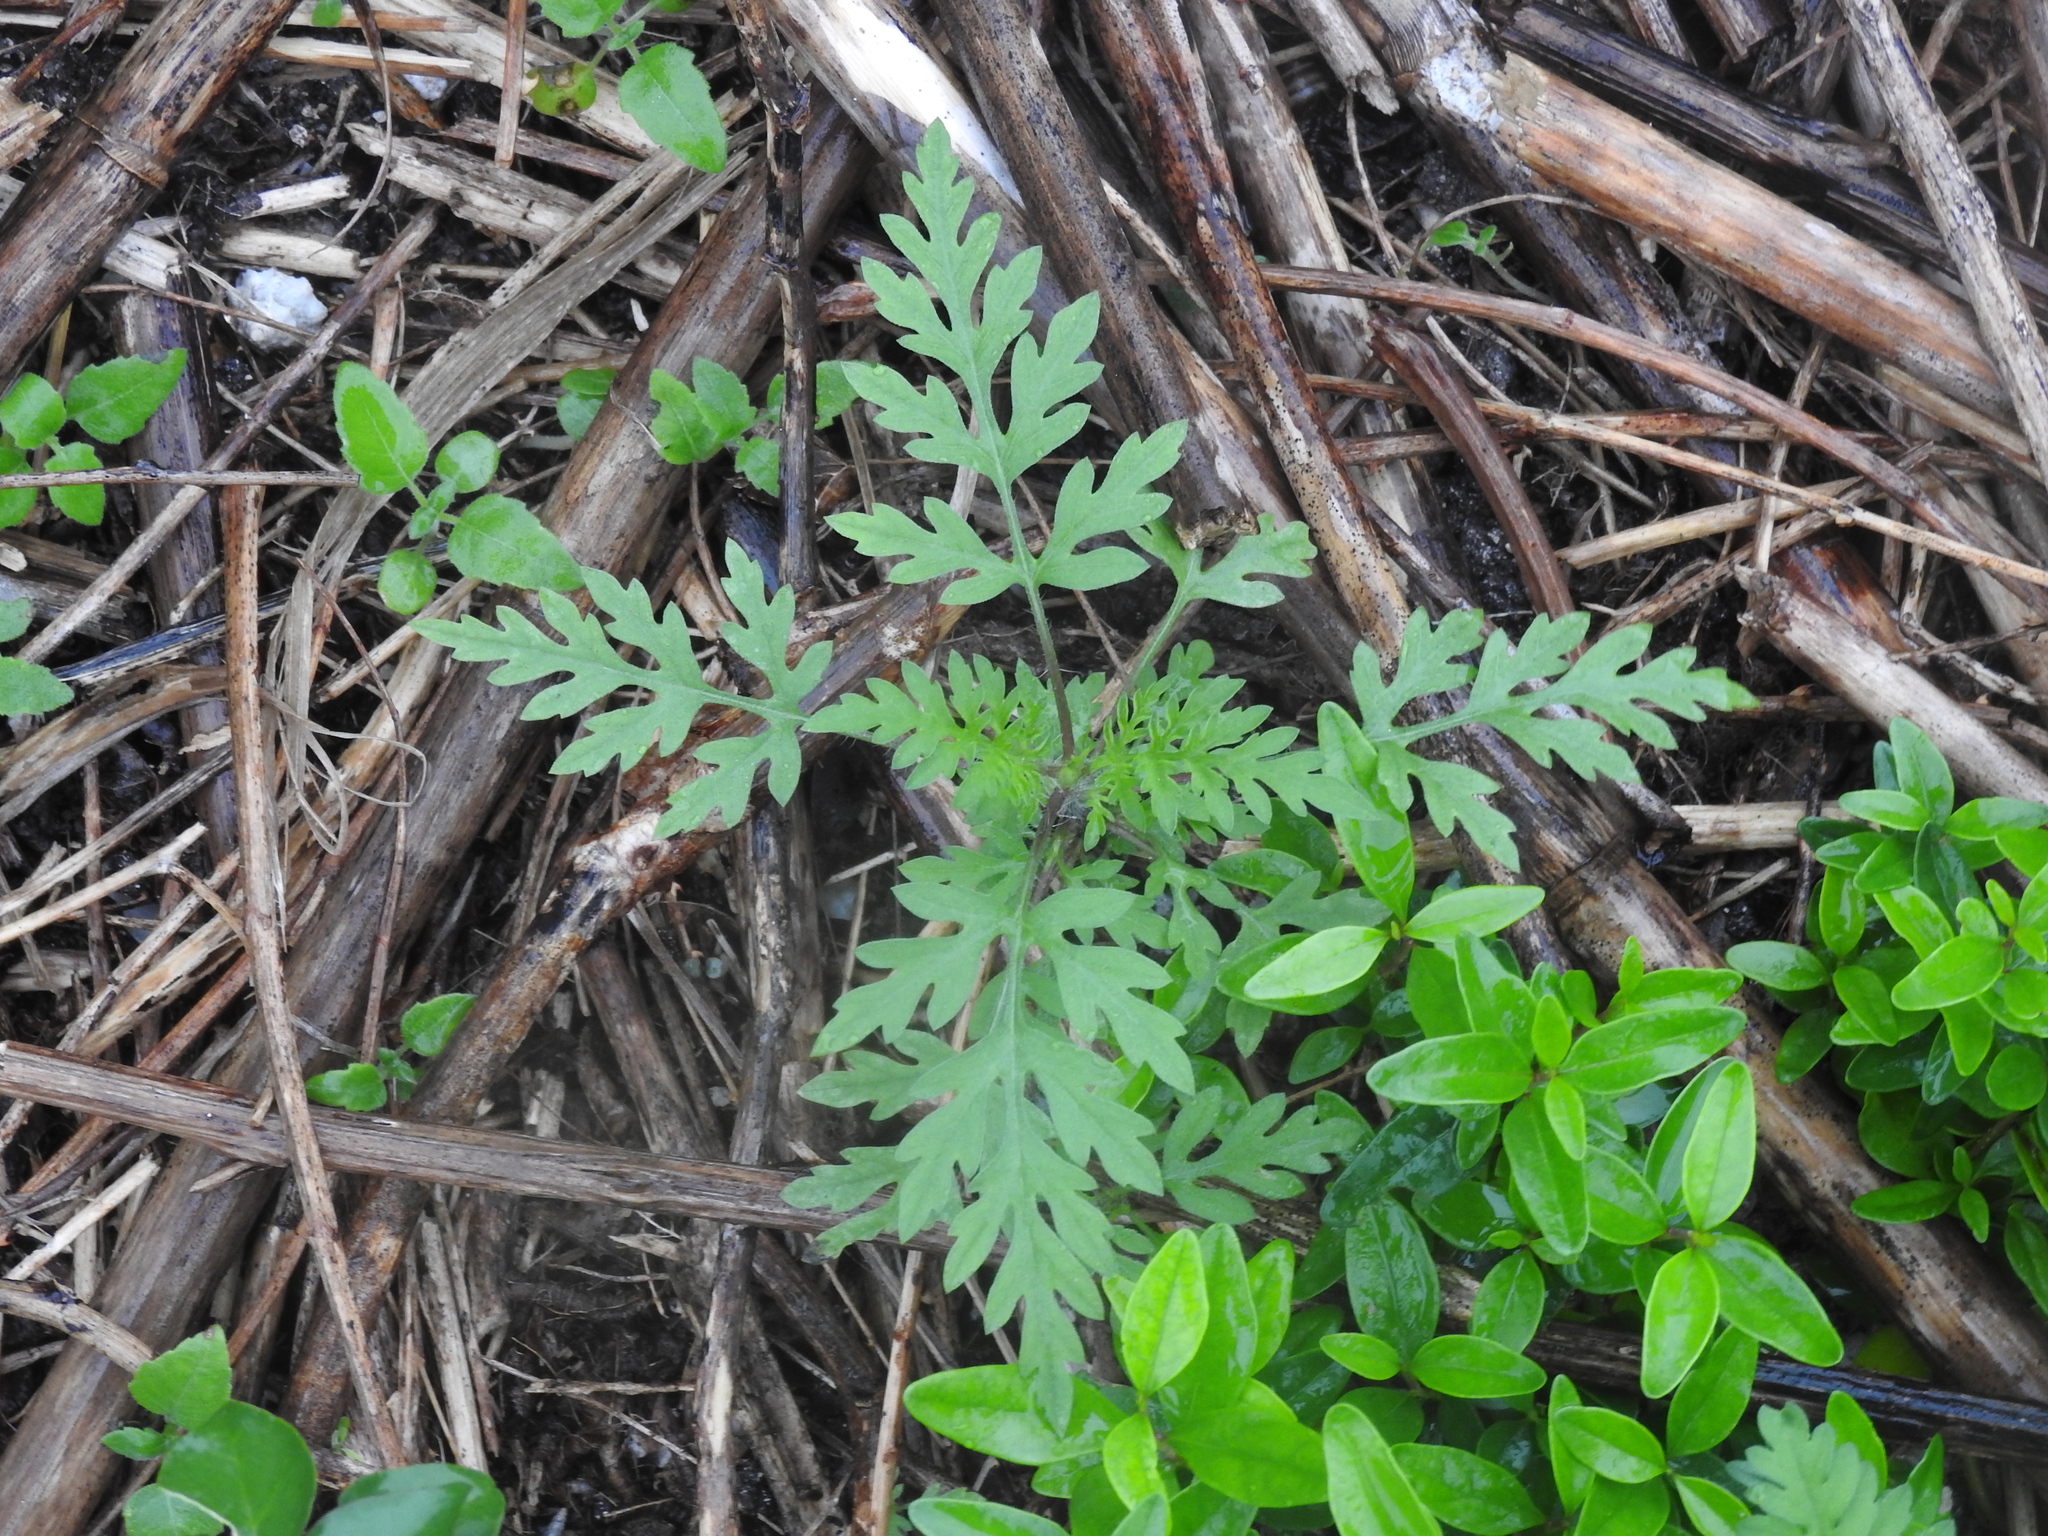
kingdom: Plantae
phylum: Tracheophyta
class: Magnoliopsida
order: Asterales
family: Asteraceae
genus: Ambrosia
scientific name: Ambrosia artemisiifolia
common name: Annual ragweed
